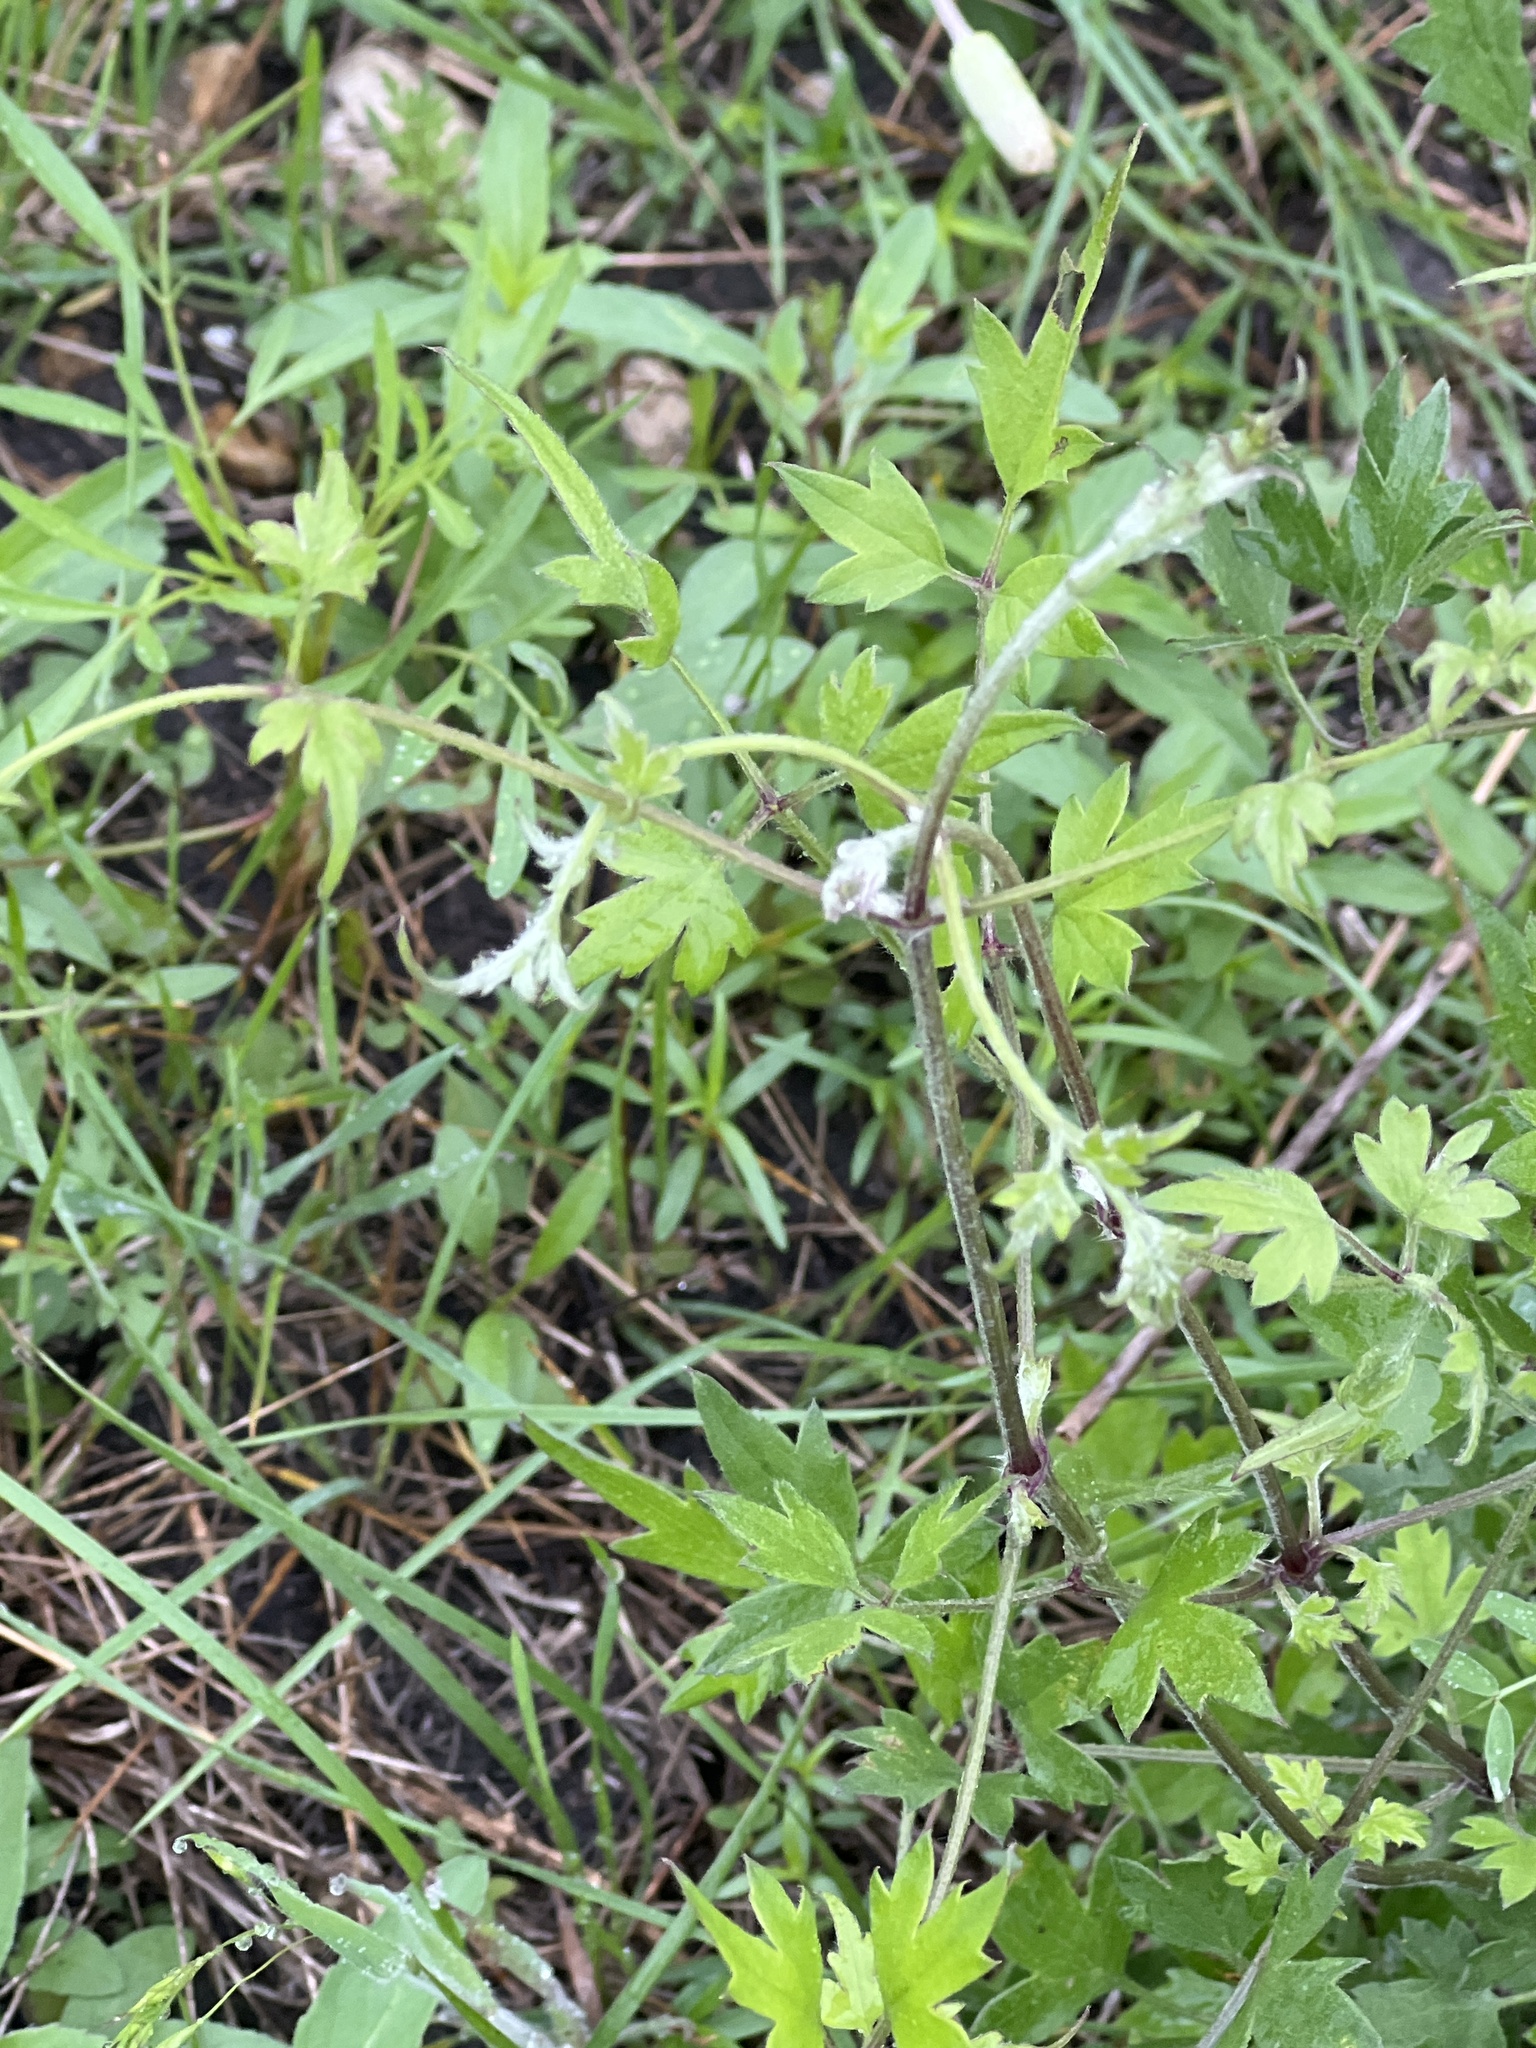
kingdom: Plantae
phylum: Tracheophyta
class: Magnoliopsida
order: Ranunculales
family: Ranunculaceae
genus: Clematis
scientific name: Clematis drummondii
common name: Texas virgin's bower
